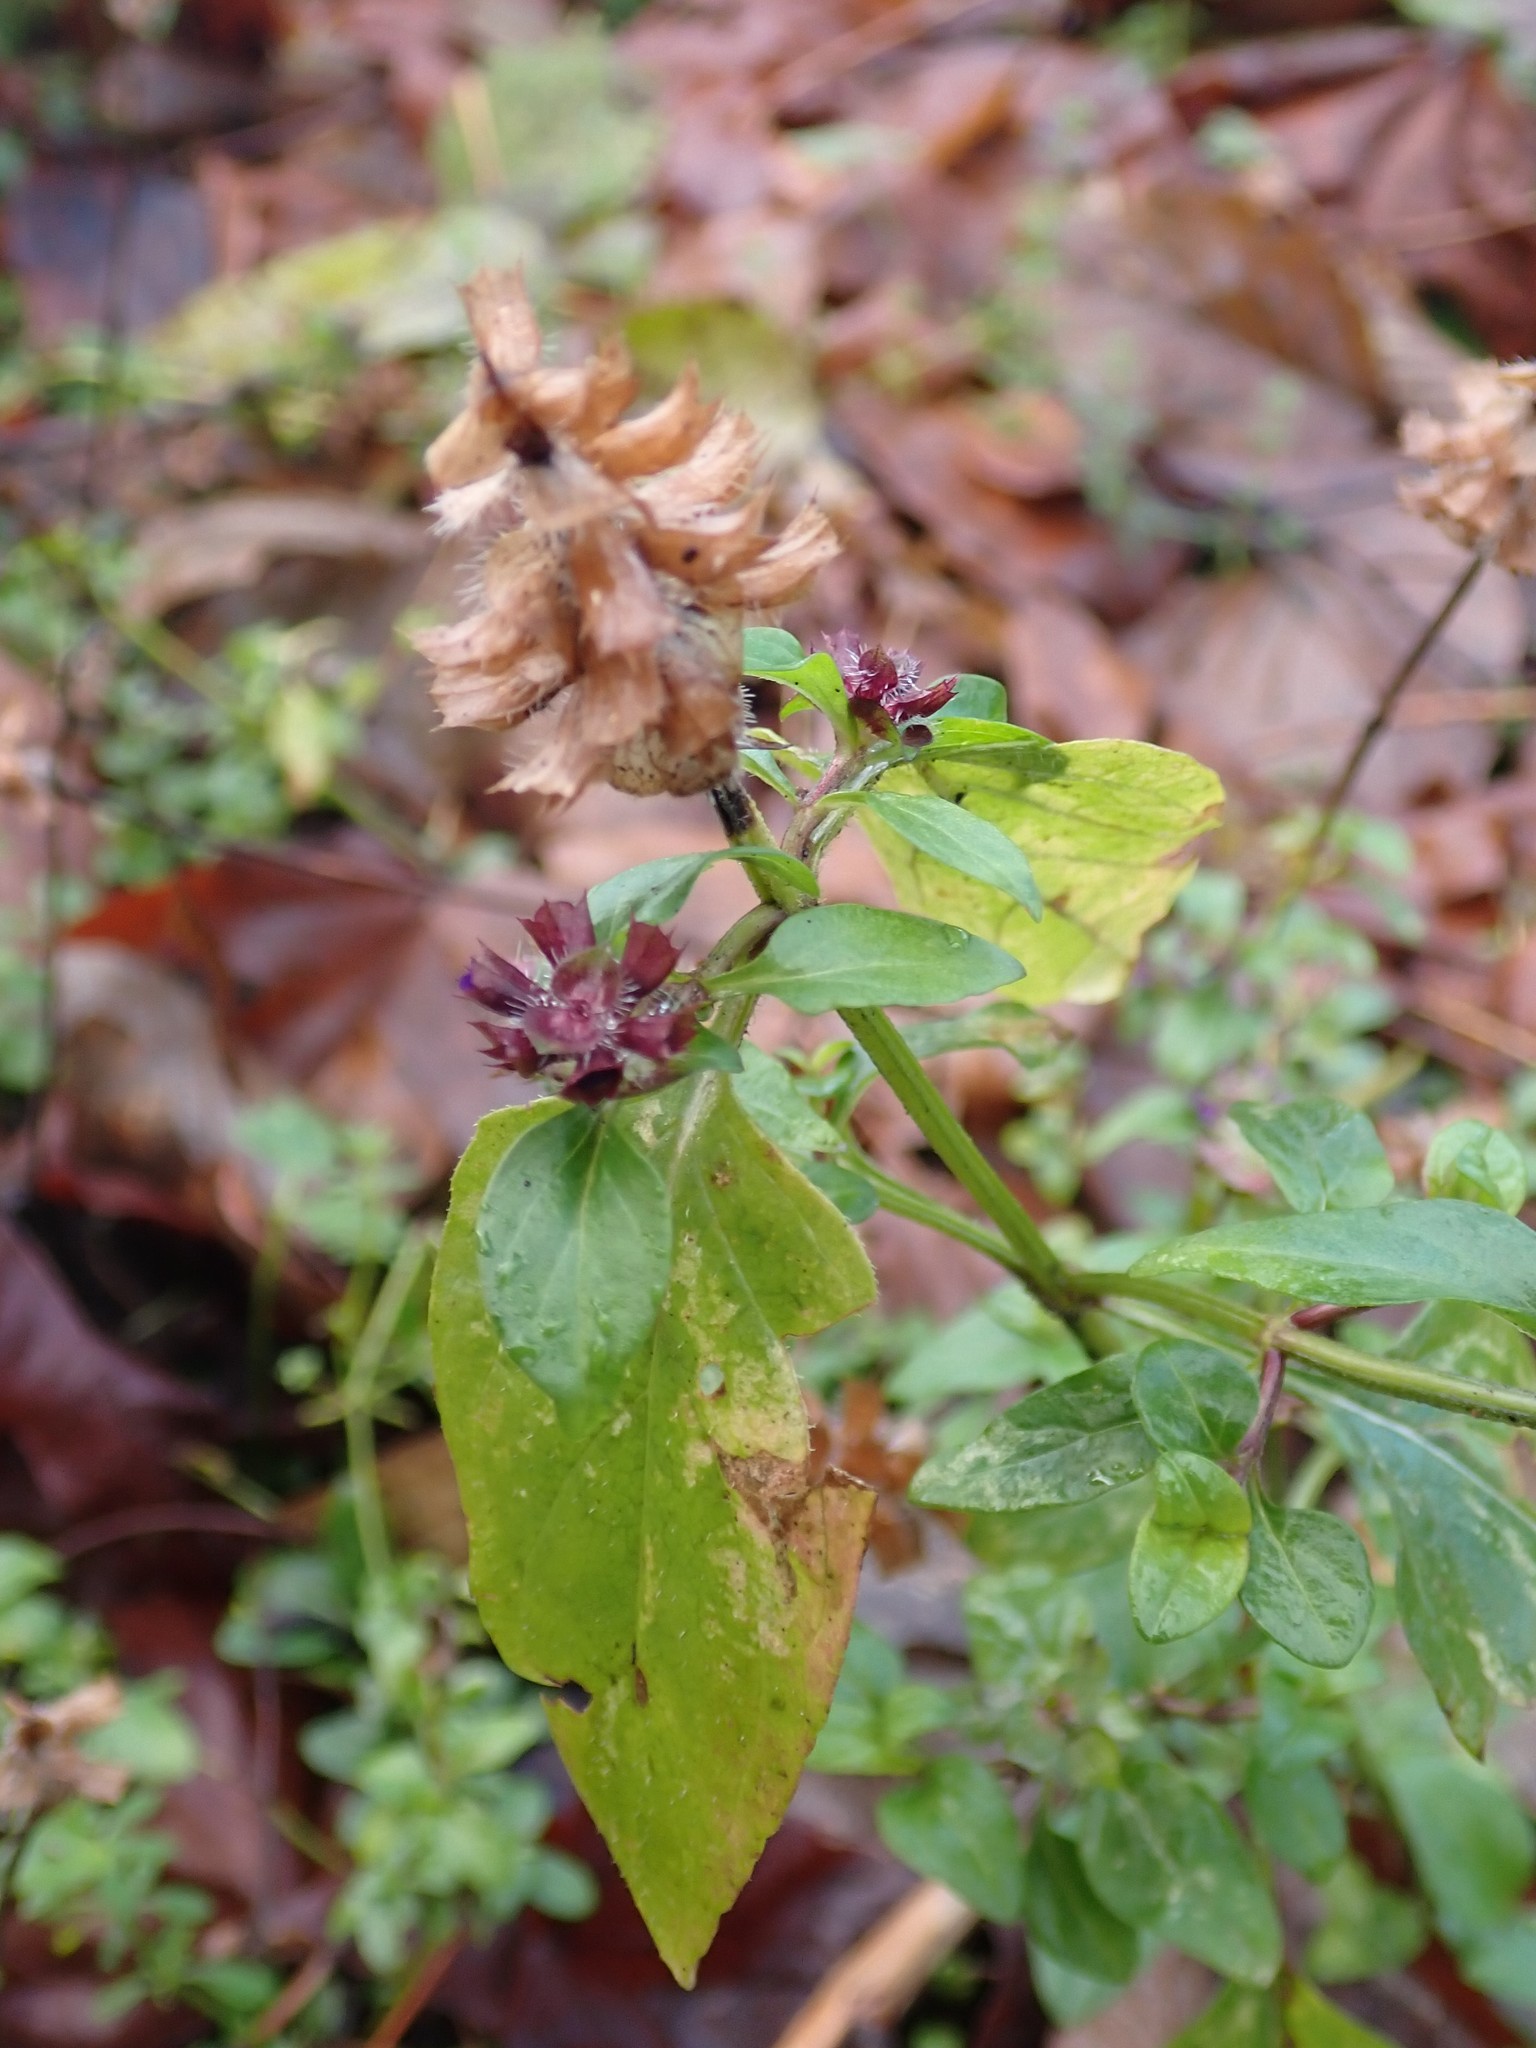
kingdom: Plantae
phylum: Tracheophyta
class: Magnoliopsida
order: Lamiales
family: Lamiaceae
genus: Prunella
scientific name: Prunella vulgaris
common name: Heal-all
